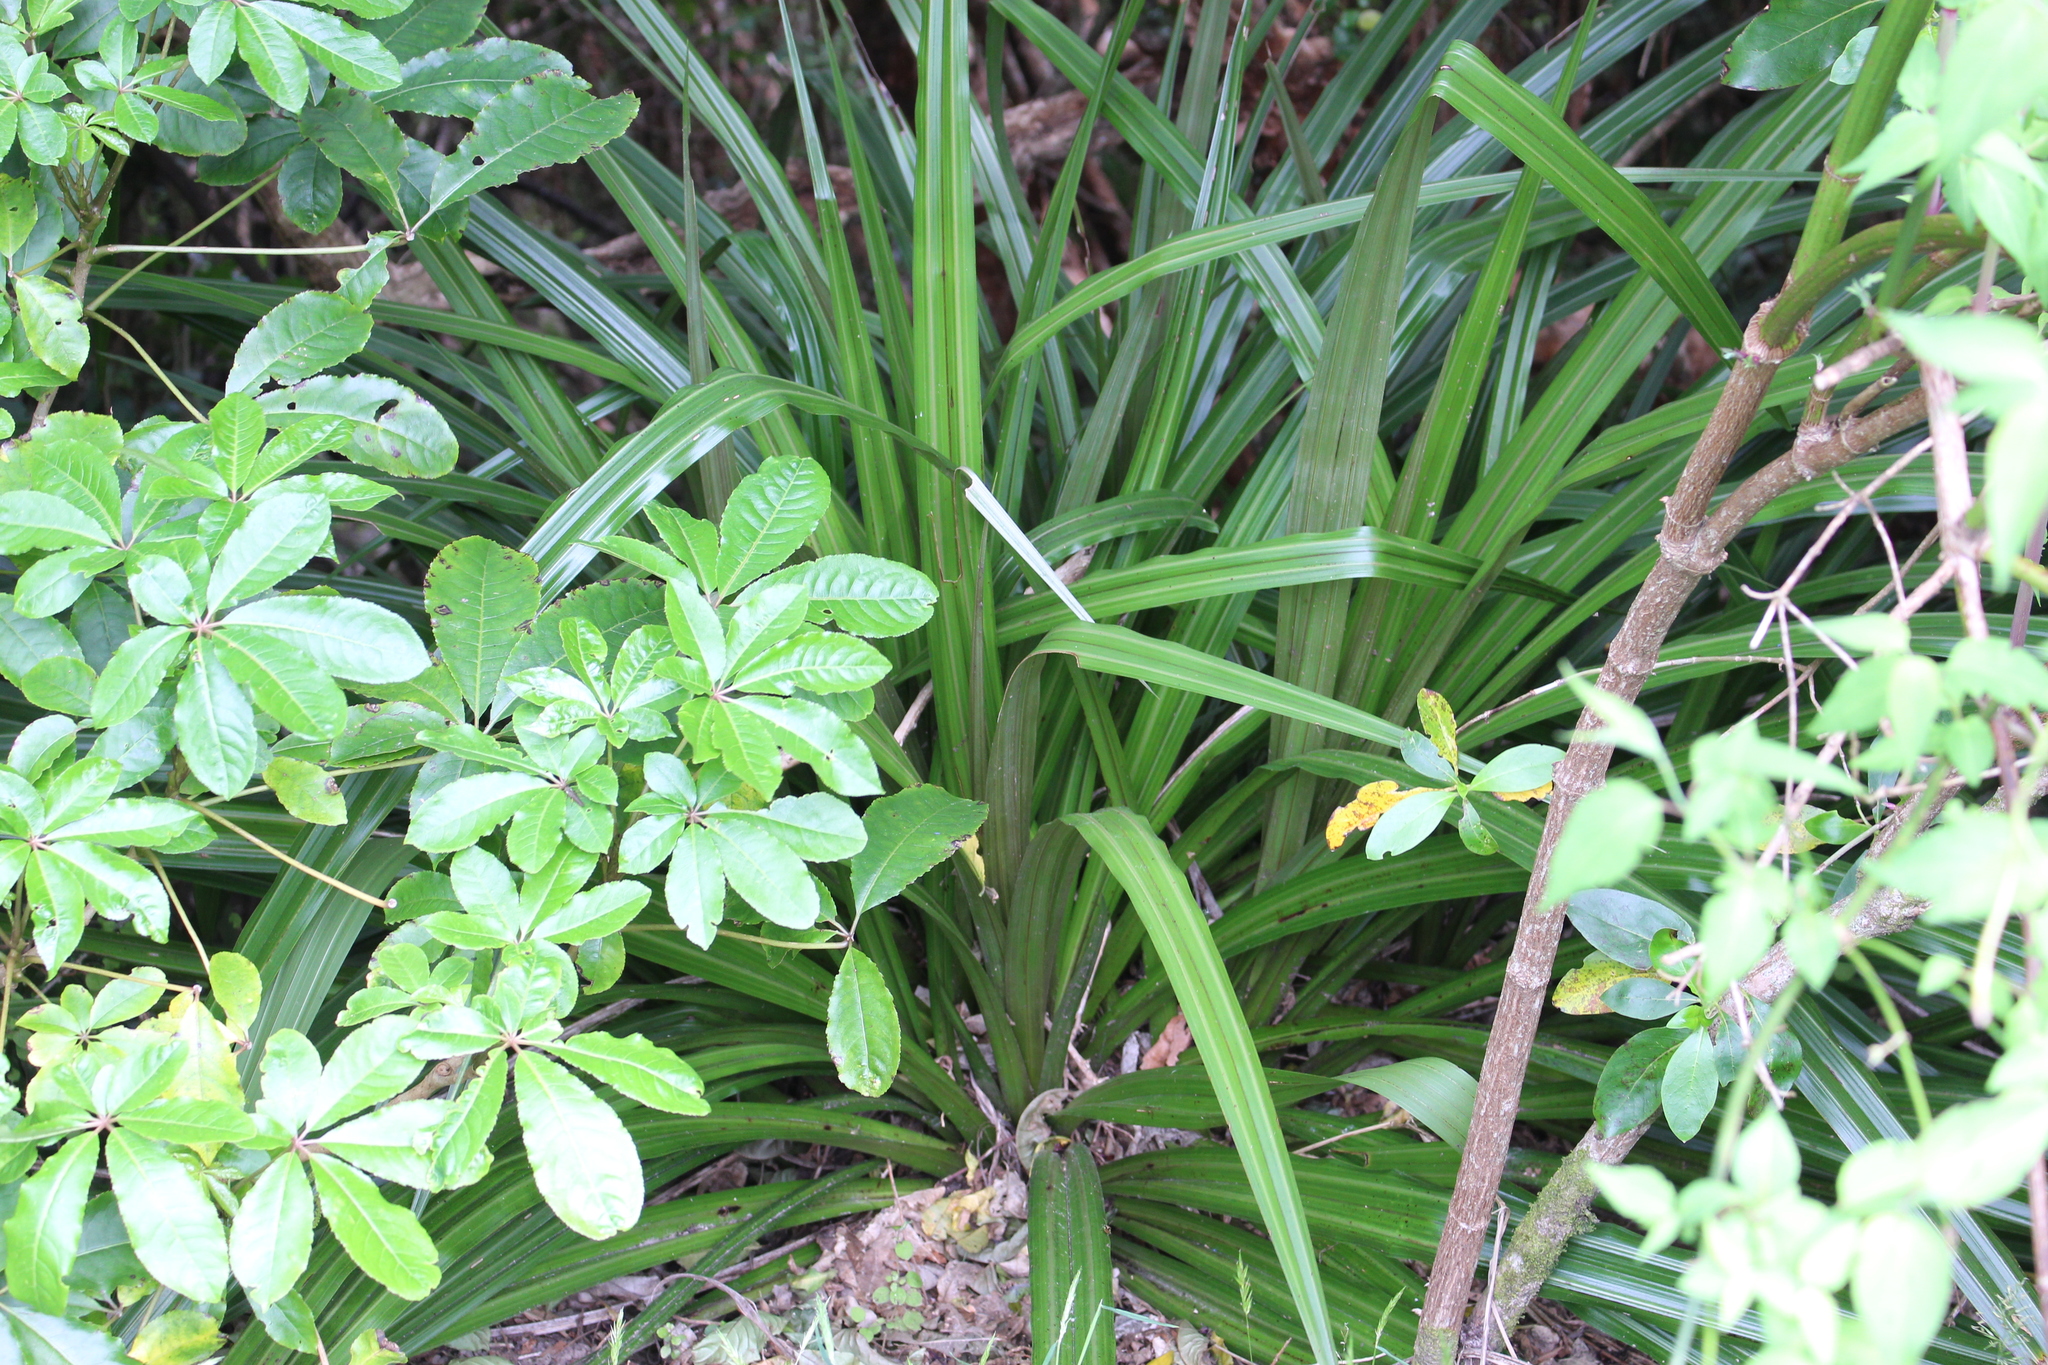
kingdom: Plantae
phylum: Tracheophyta
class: Liliopsida
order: Asparagales
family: Asteliaceae
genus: Astelia
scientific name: Astelia fragrans
